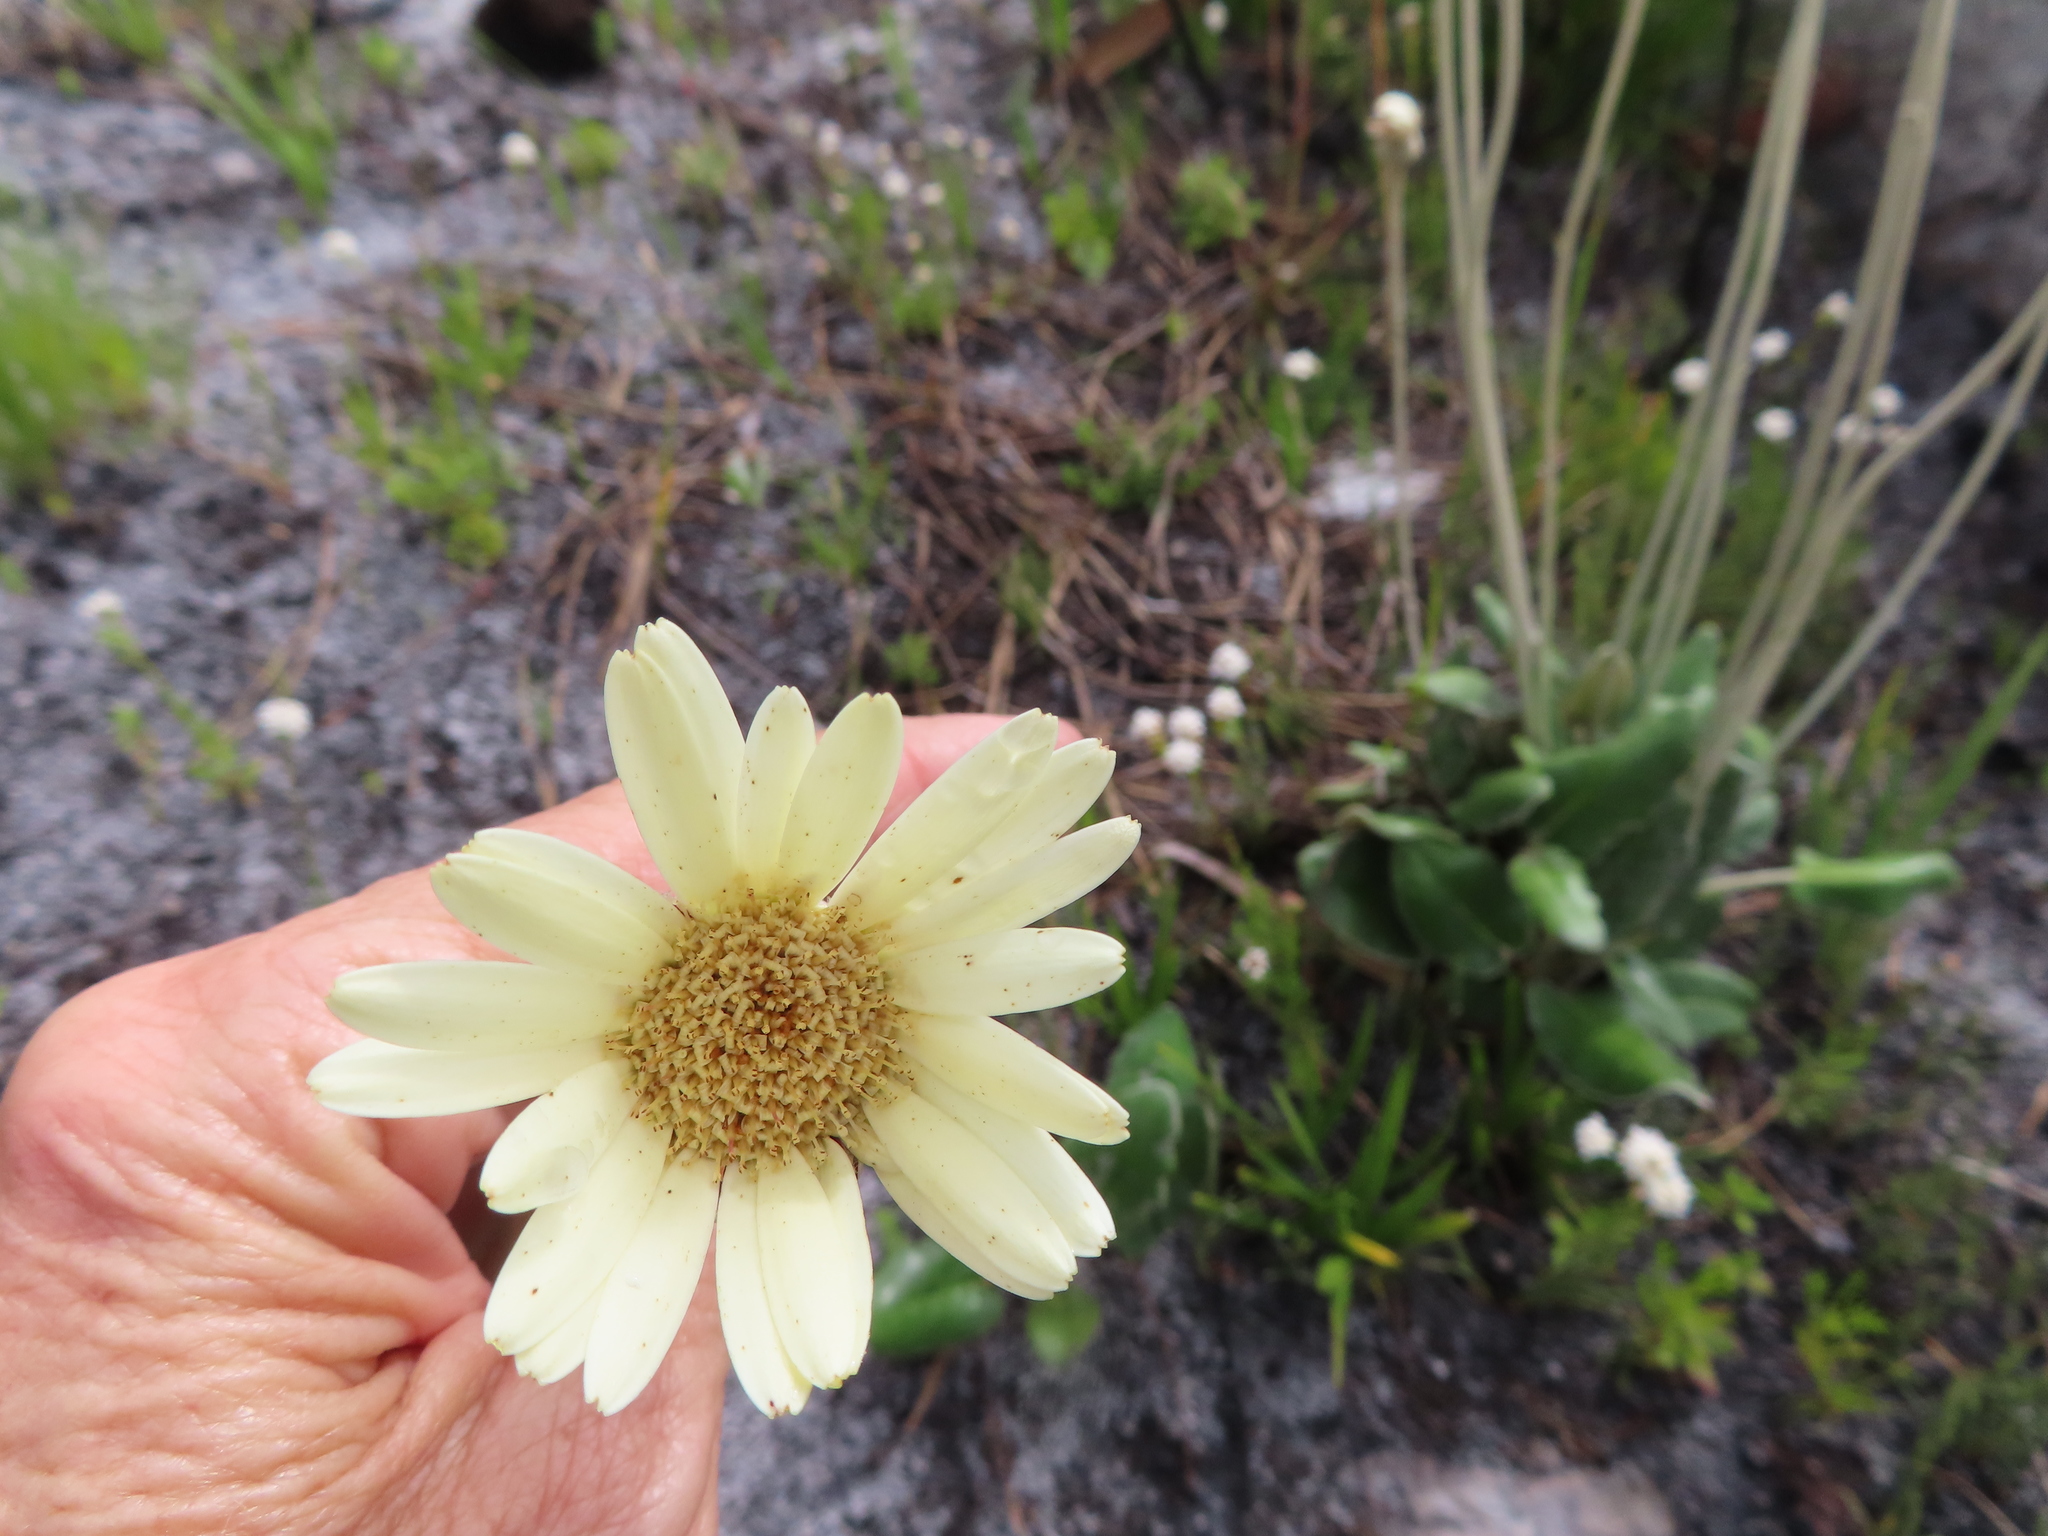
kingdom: Plantae
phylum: Tracheophyta
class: Magnoliopsida
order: Asterales
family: Asteraceae
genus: Gerbera
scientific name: Gerbera tomentosa
